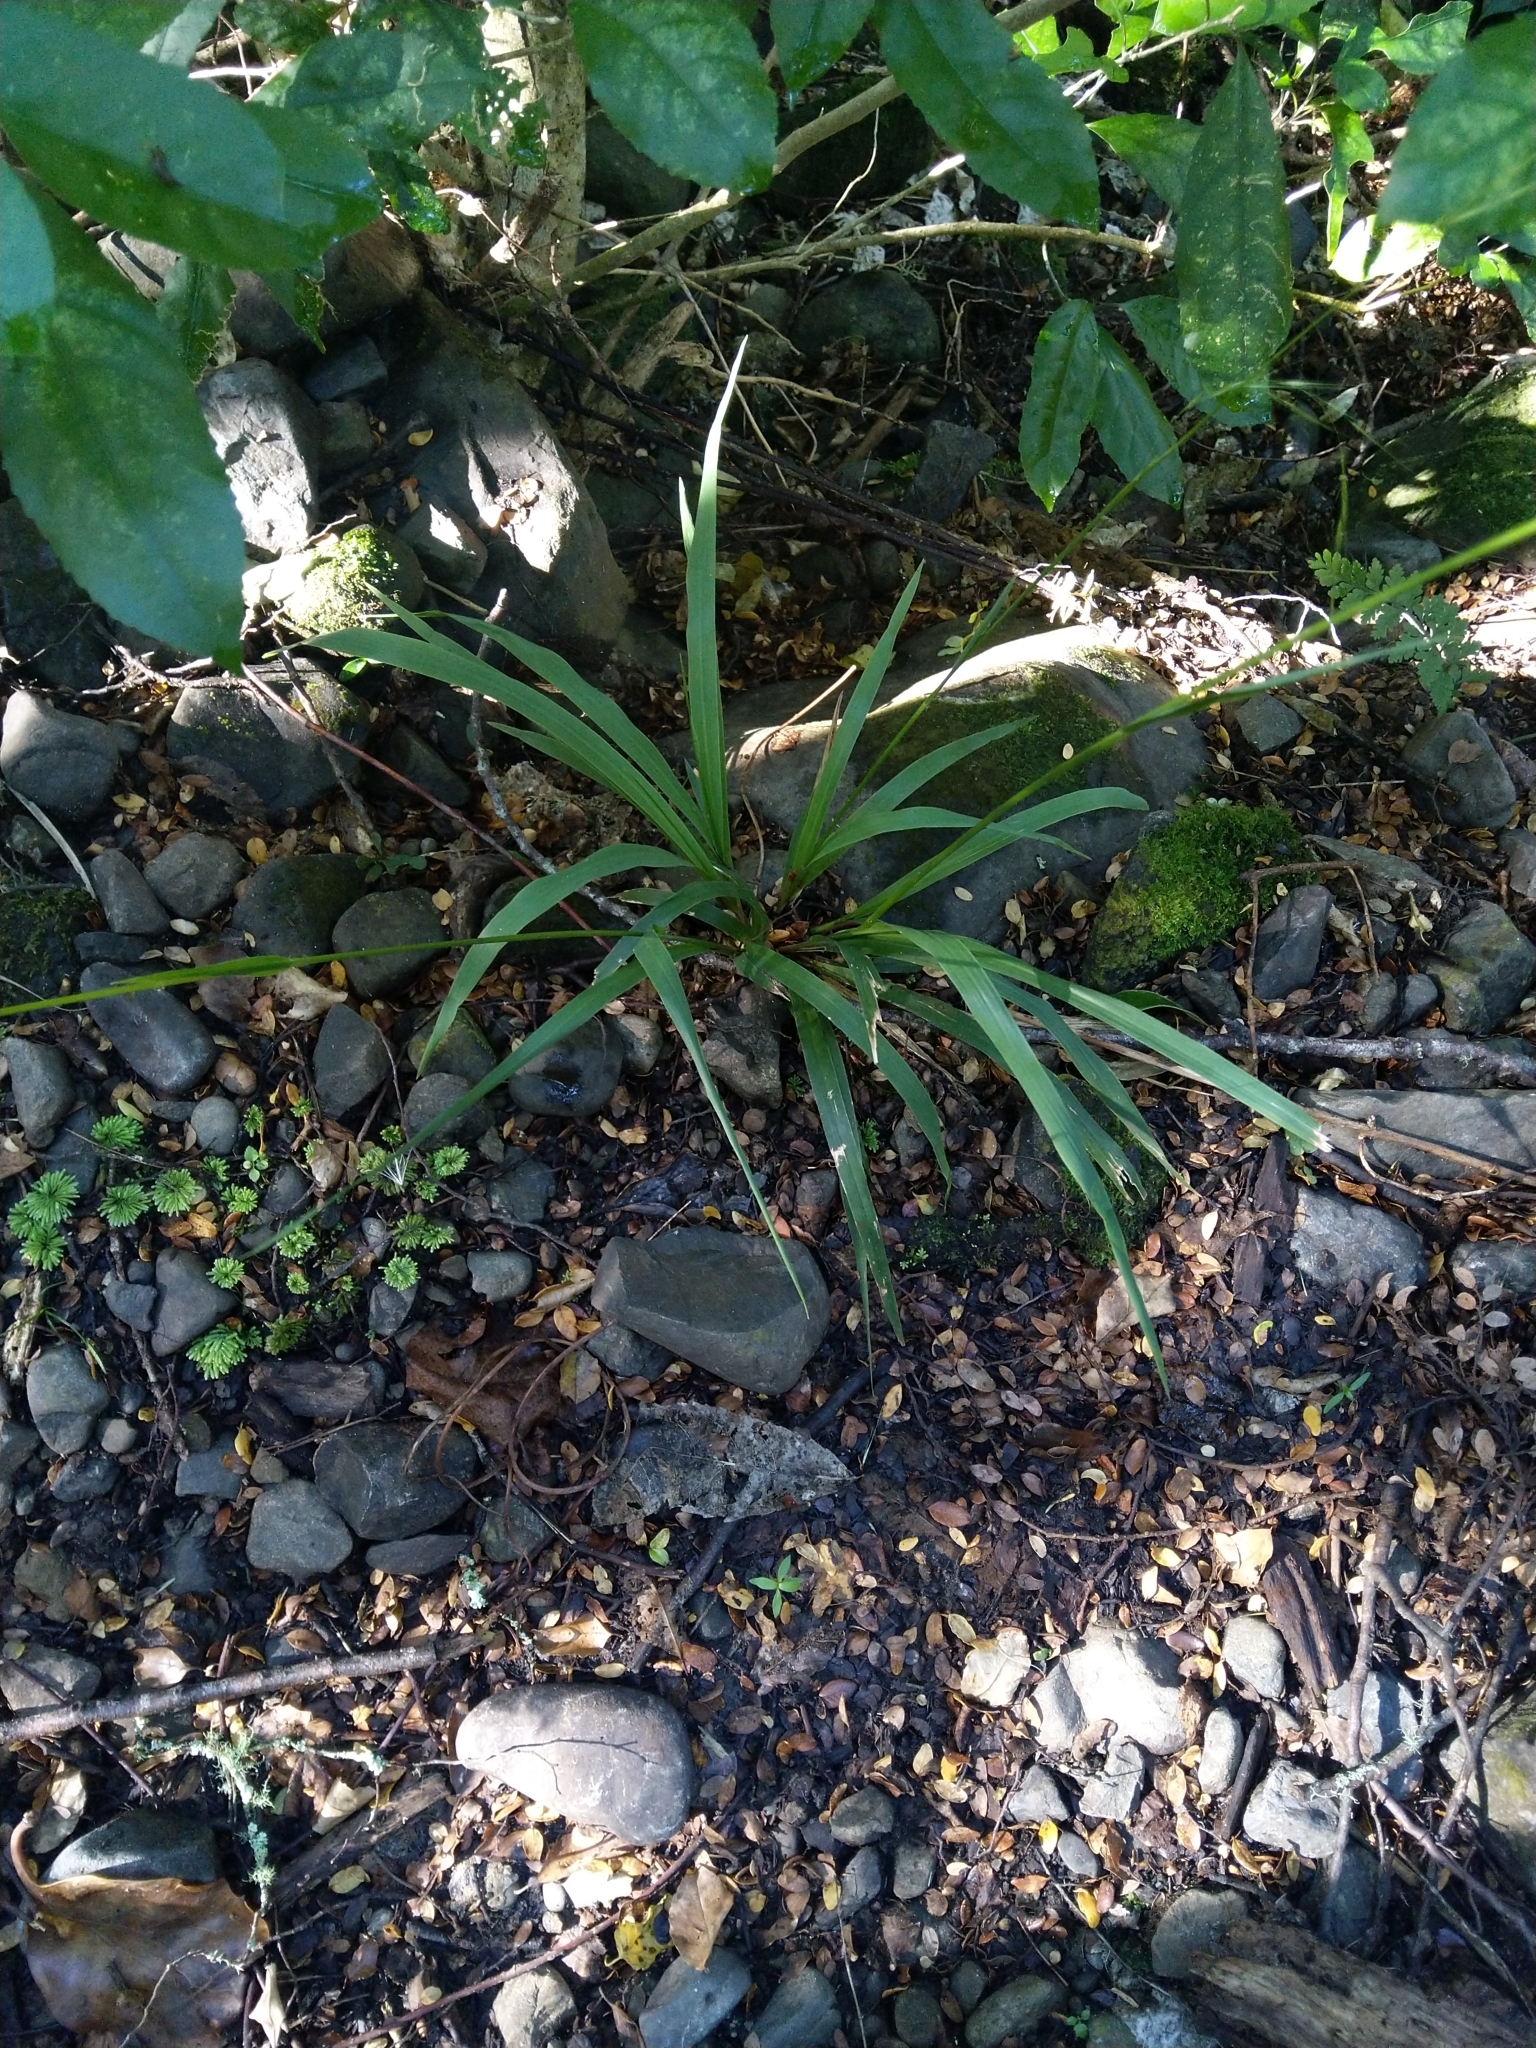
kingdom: Plantae
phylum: Tracheophyta
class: Liliopsida
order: Poales
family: Poaceae
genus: Ehrharta
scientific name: Ehrharta diplax
